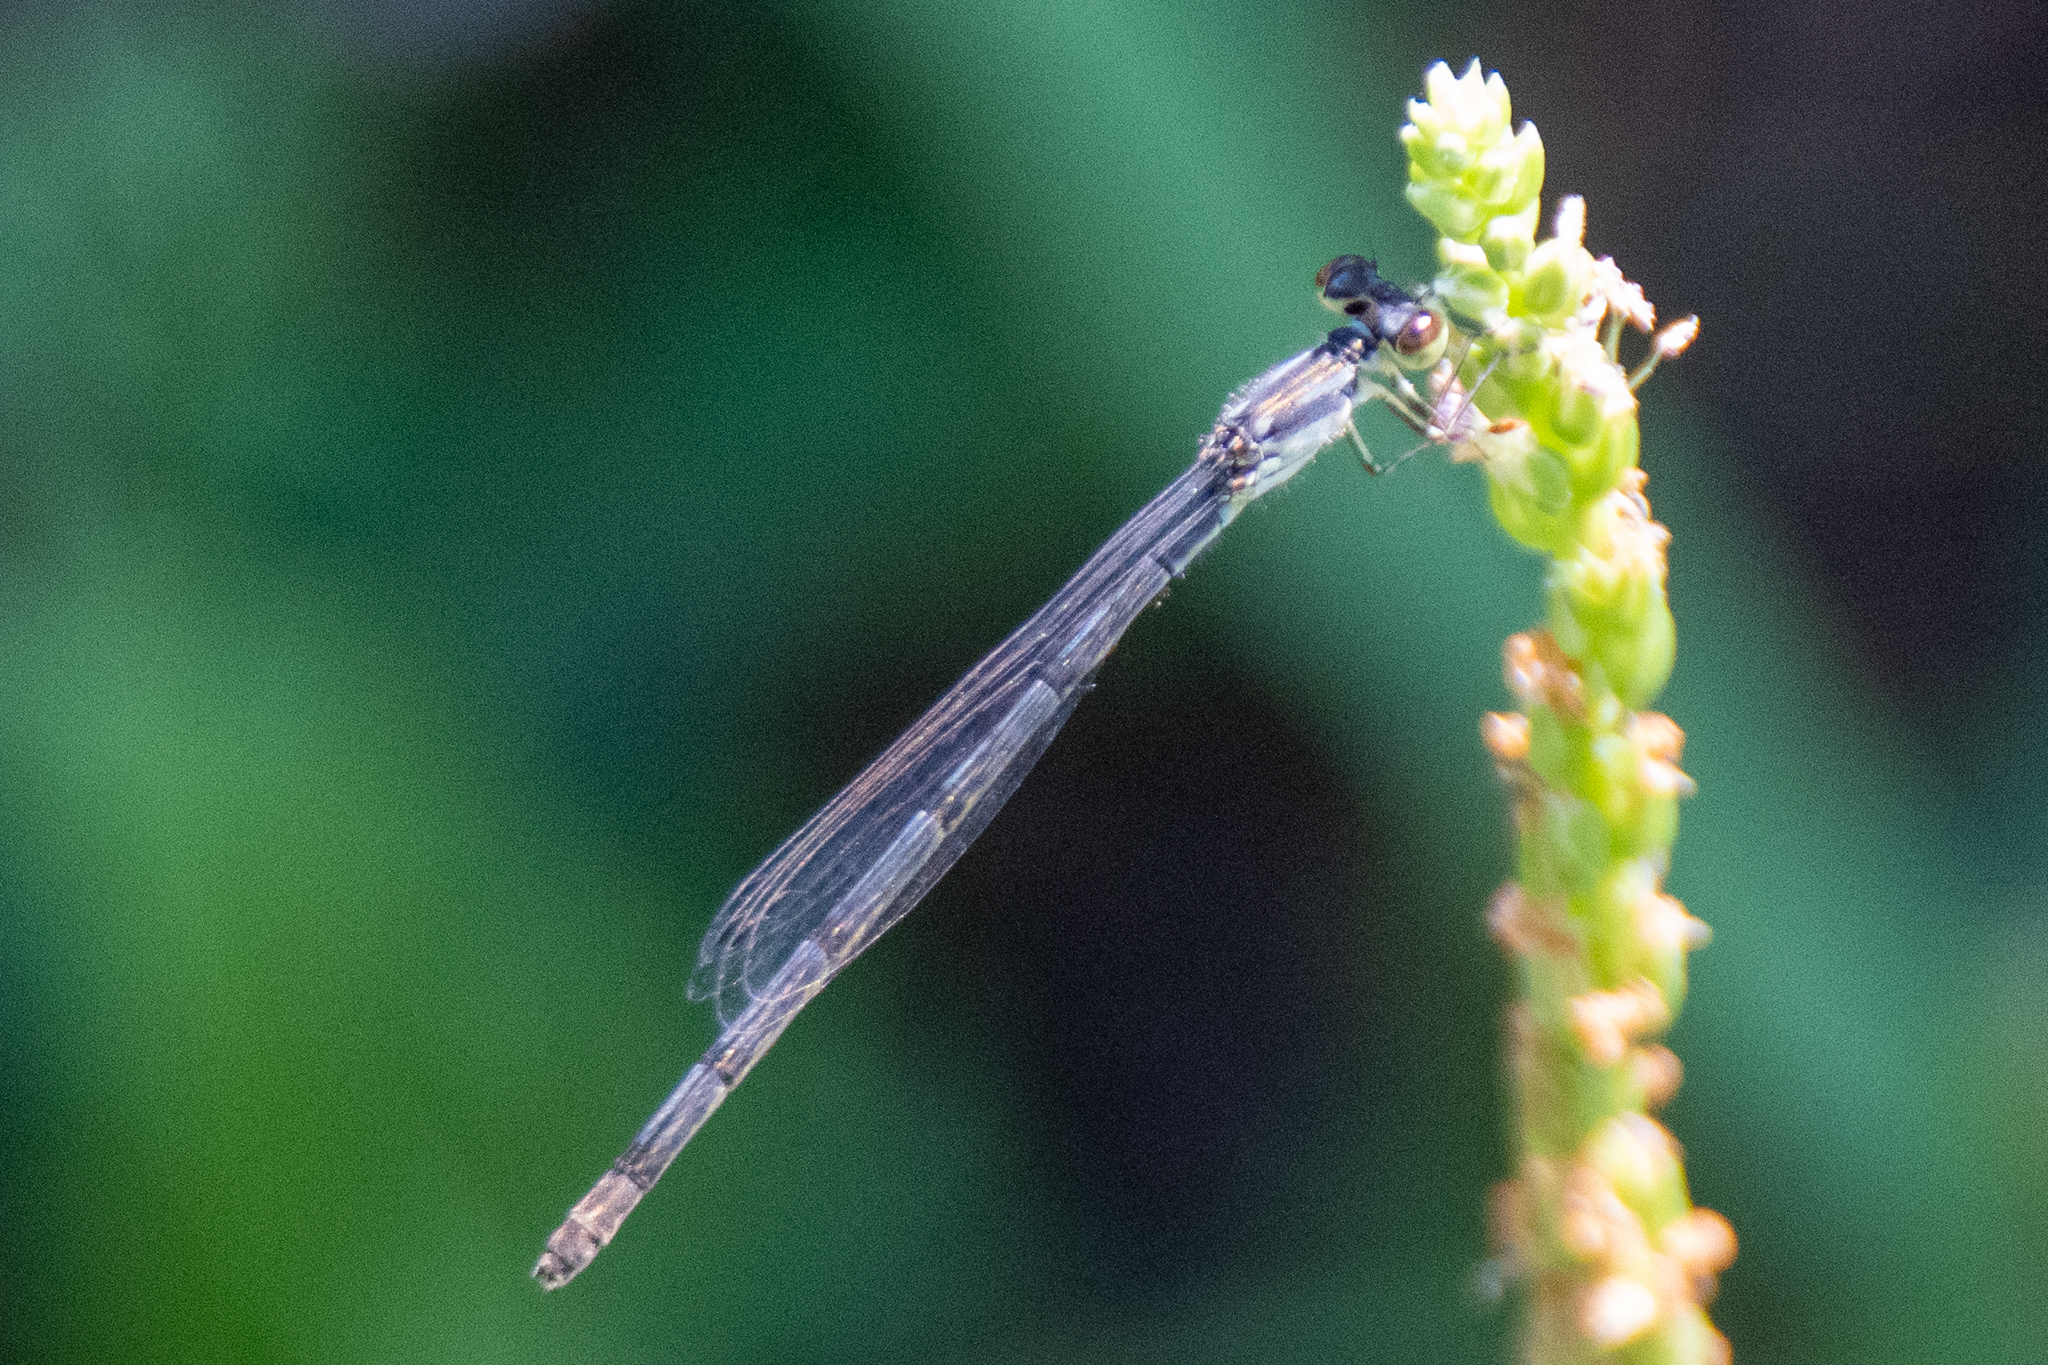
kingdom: Animalia
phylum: Arthropoda
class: Insecta
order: Odonata
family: Coenagrionidae
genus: Ischnura
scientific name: Ischnura posita
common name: Fragile forktail
